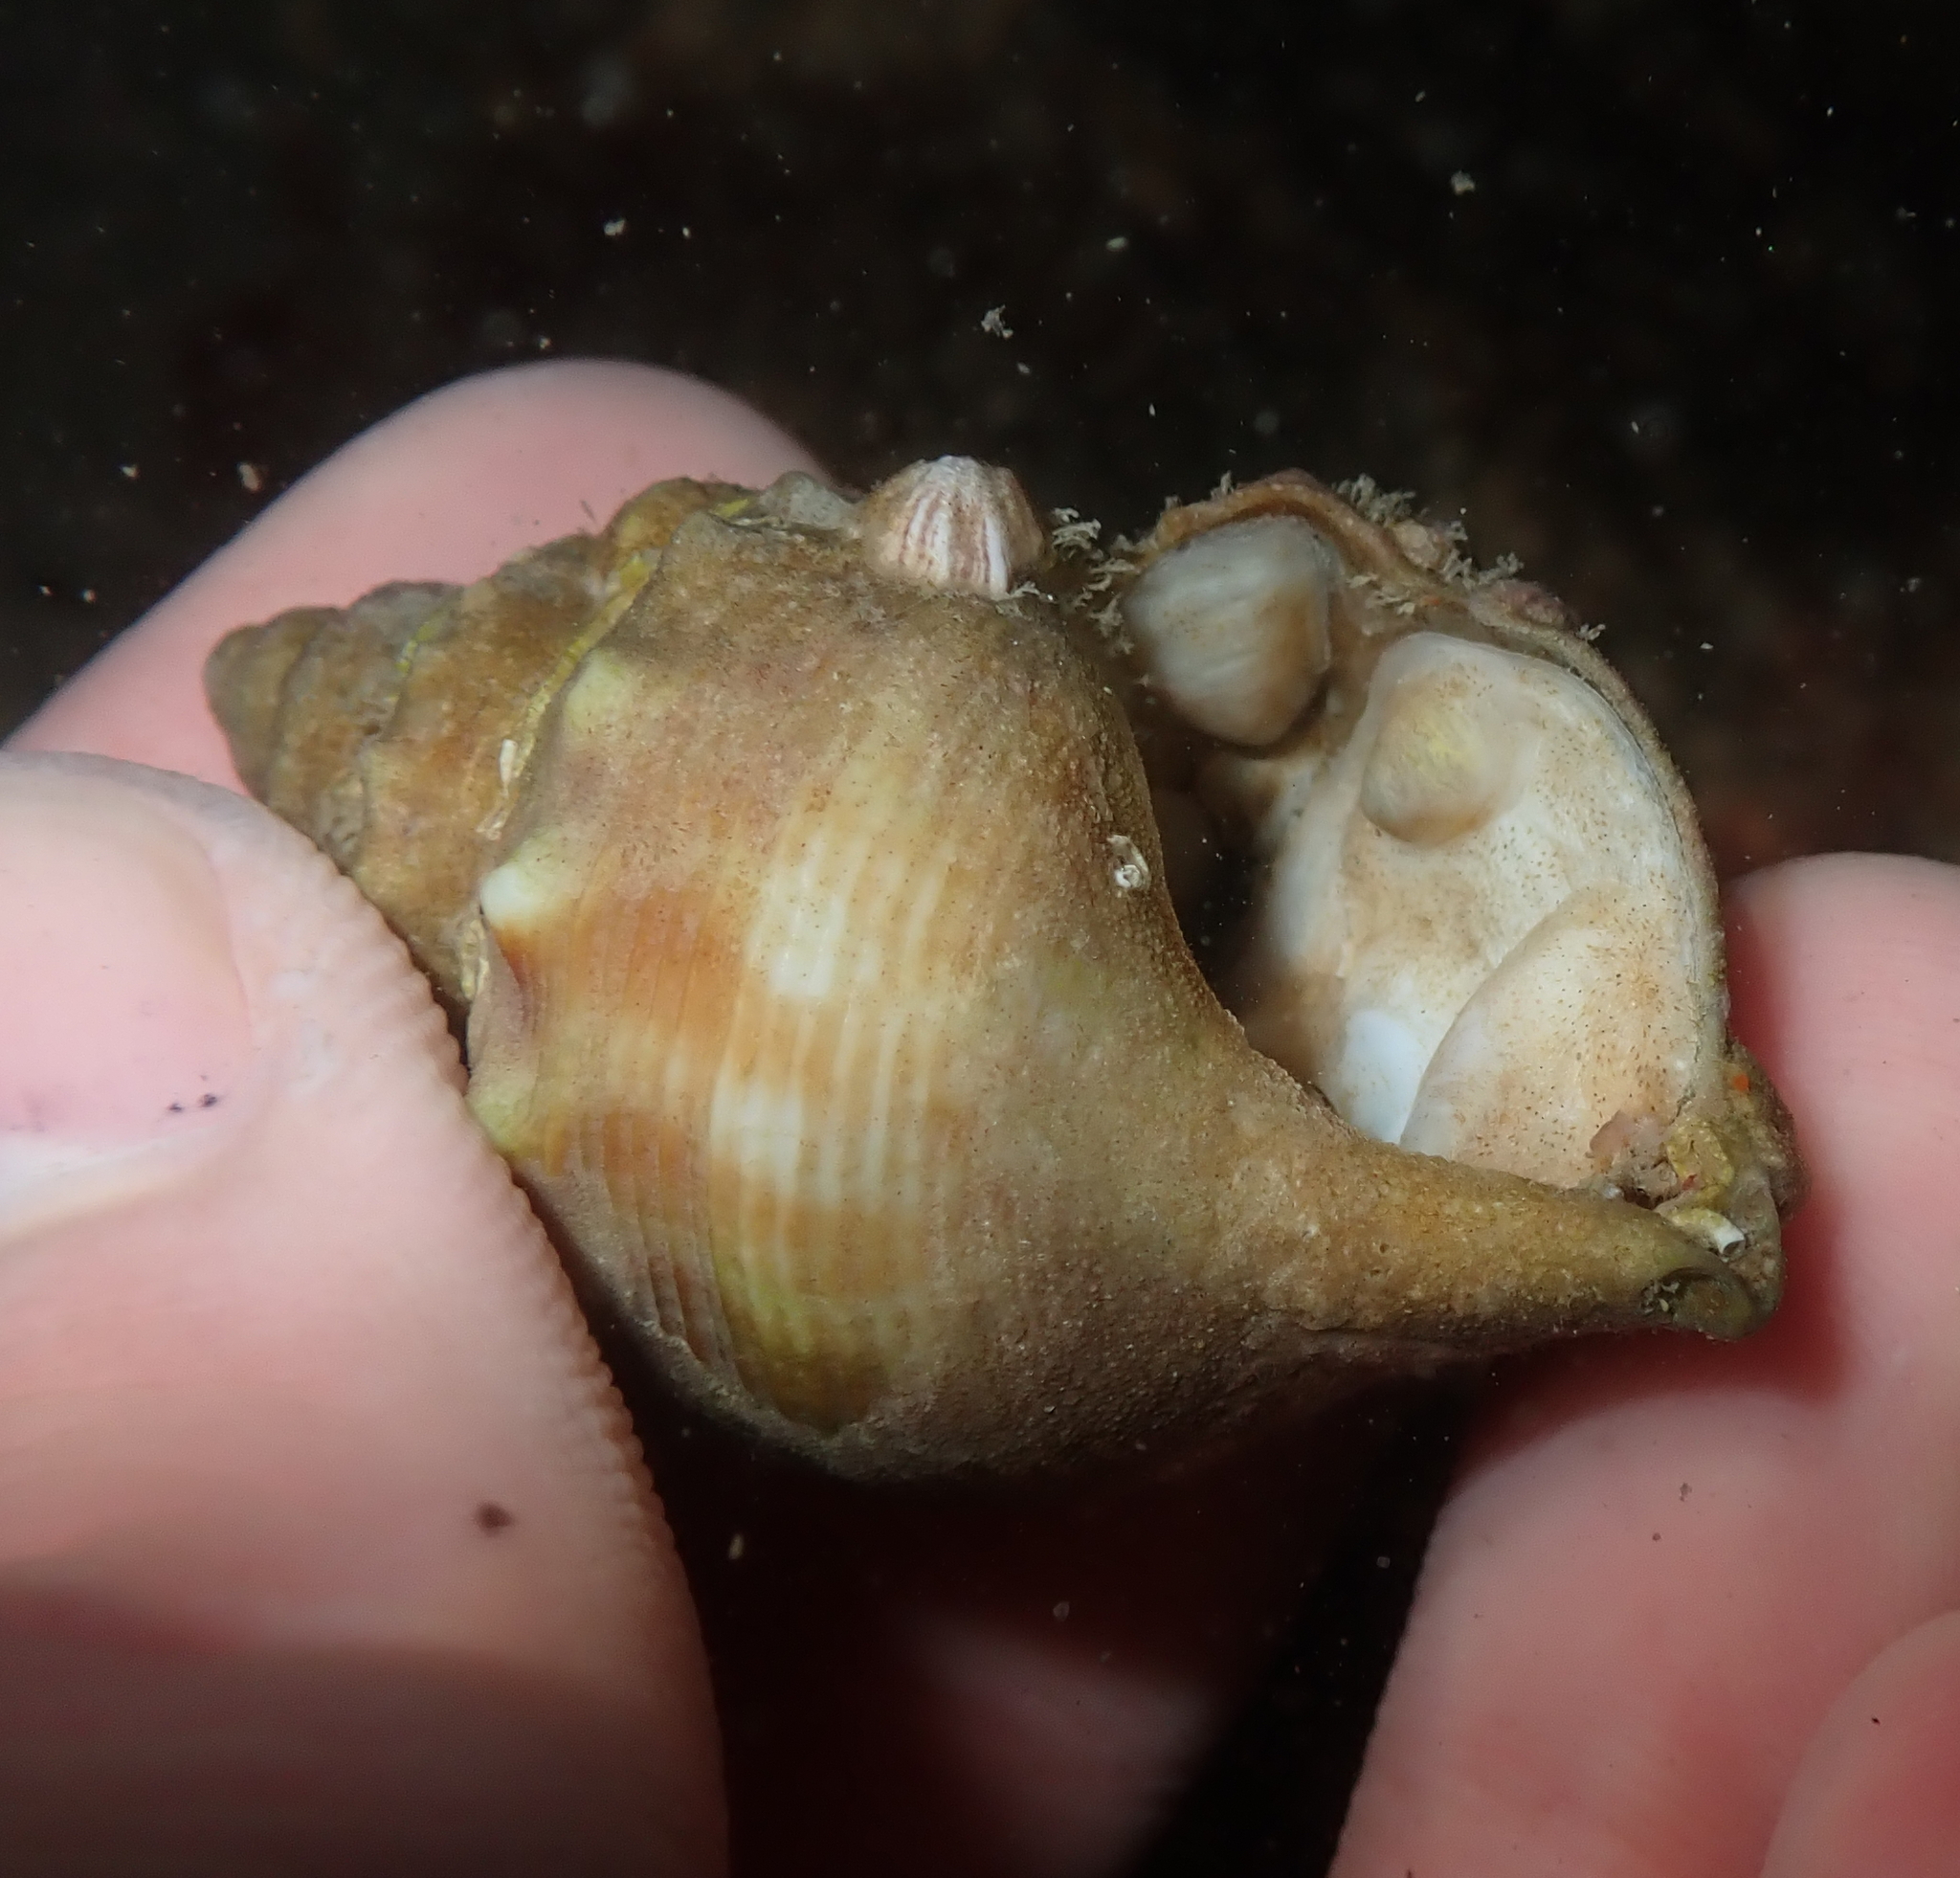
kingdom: Animalia
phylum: Mollusca
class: Gastropoda
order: Littorinimorpha
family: Calyptraeidae
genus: Maoricrypta
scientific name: Maoricrypta sodalis
